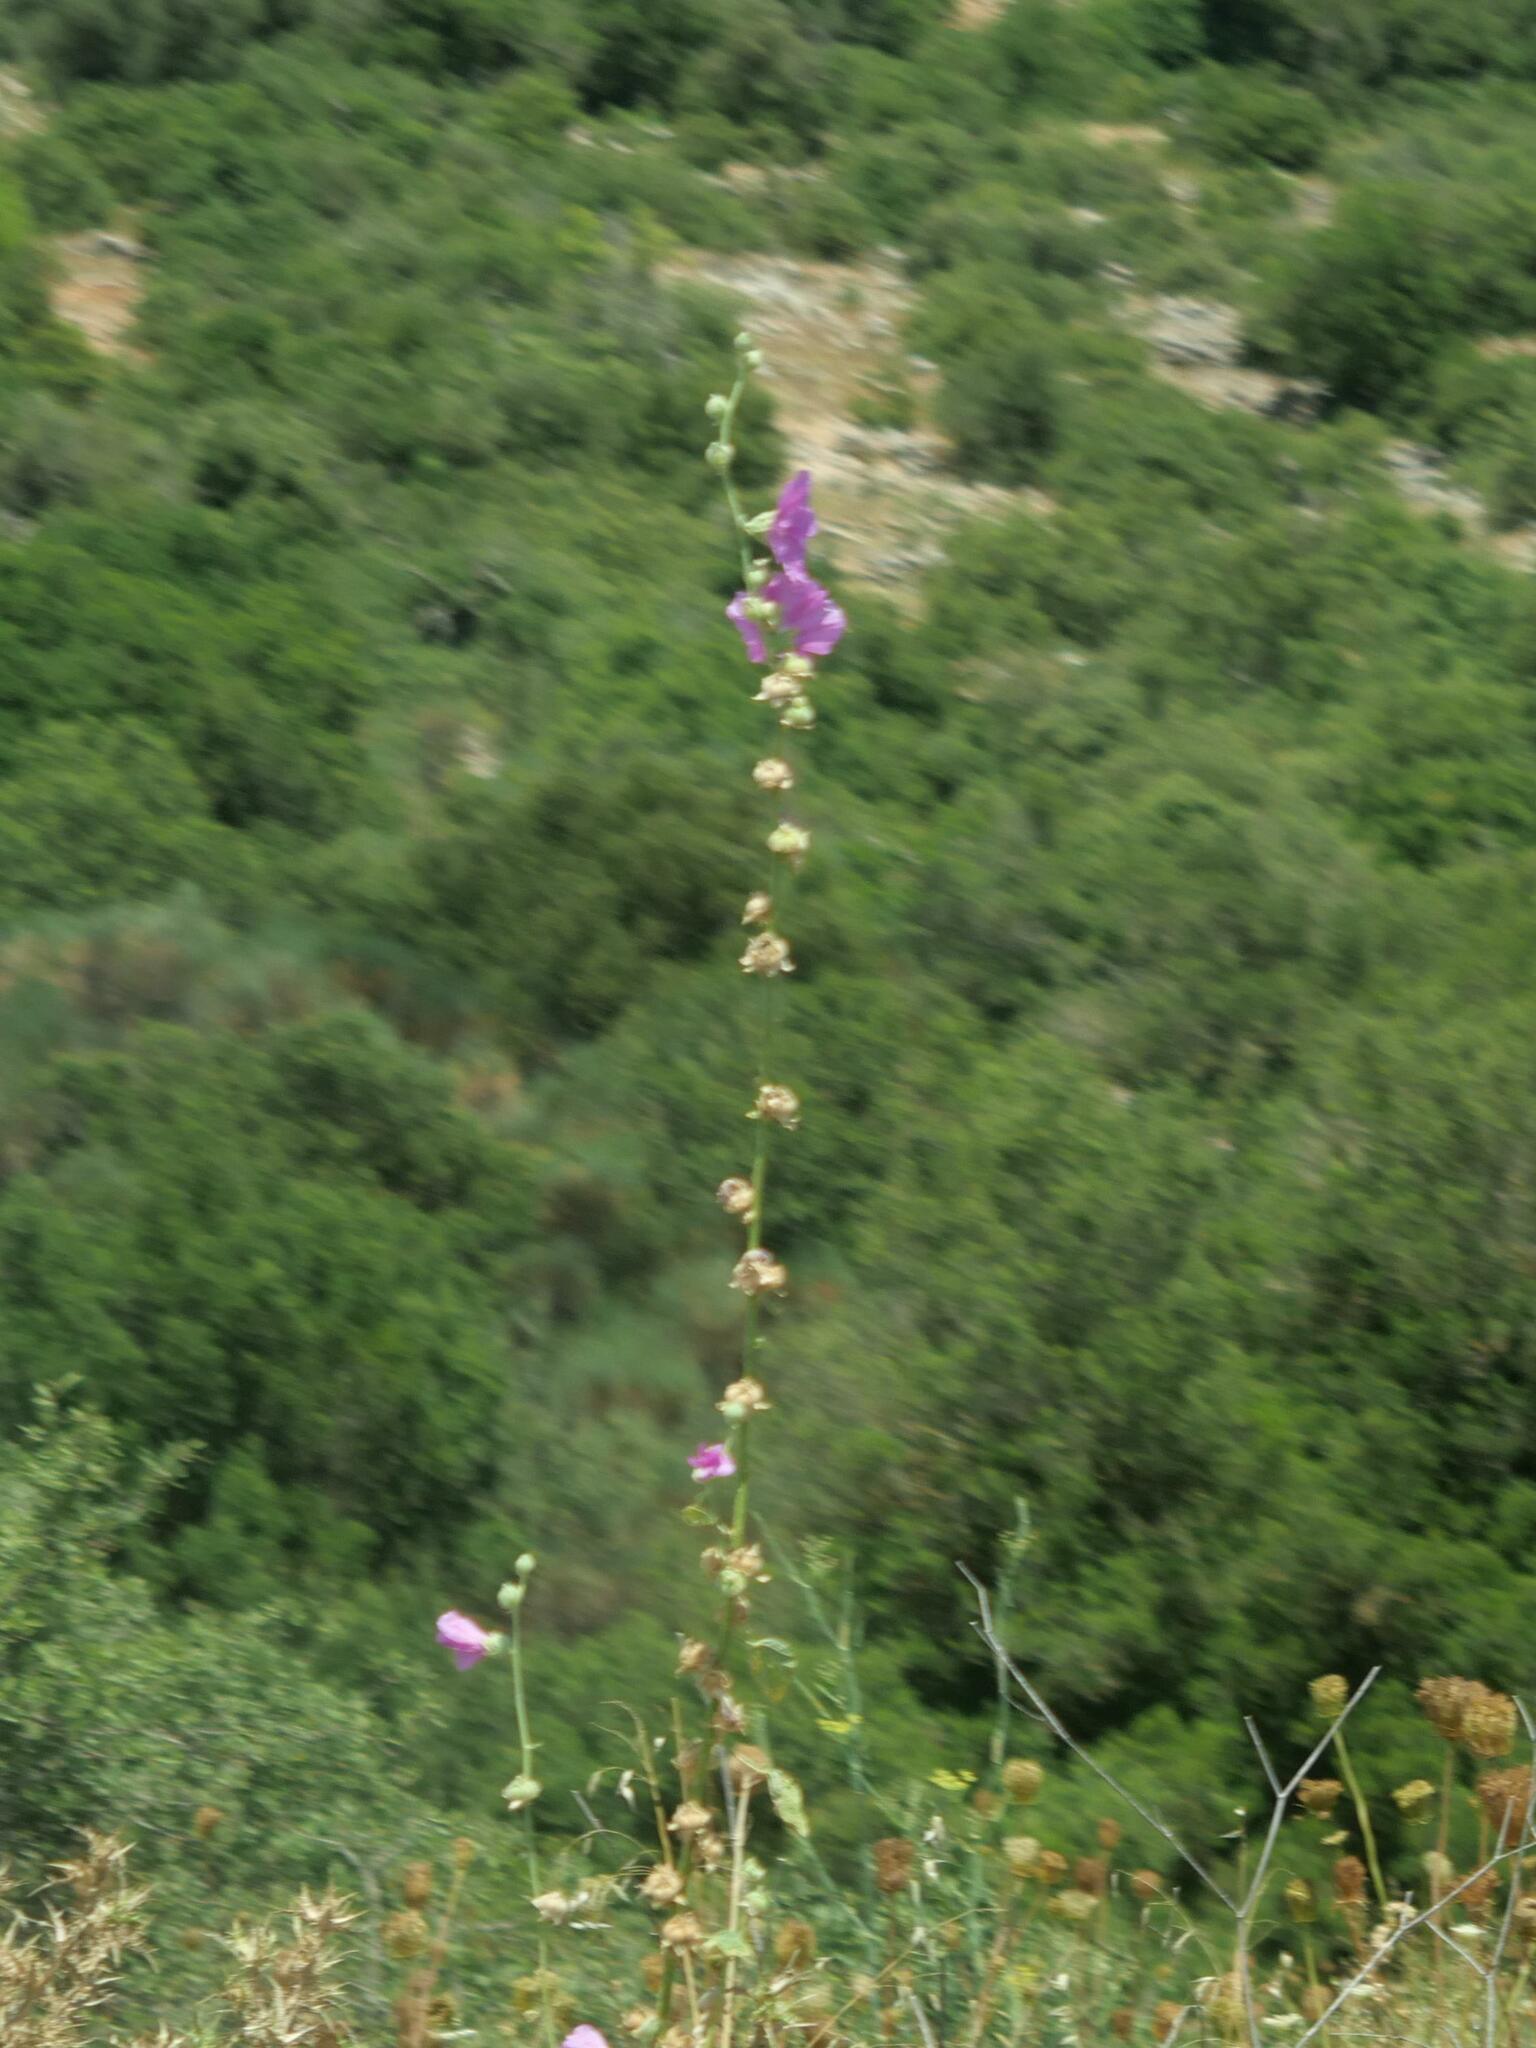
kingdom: Plantae
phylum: Tracheophyta
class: Magnoliopsida
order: Malvales
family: Malvaceae
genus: Alcea
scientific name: Alcea rosea
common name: Hollyhock
